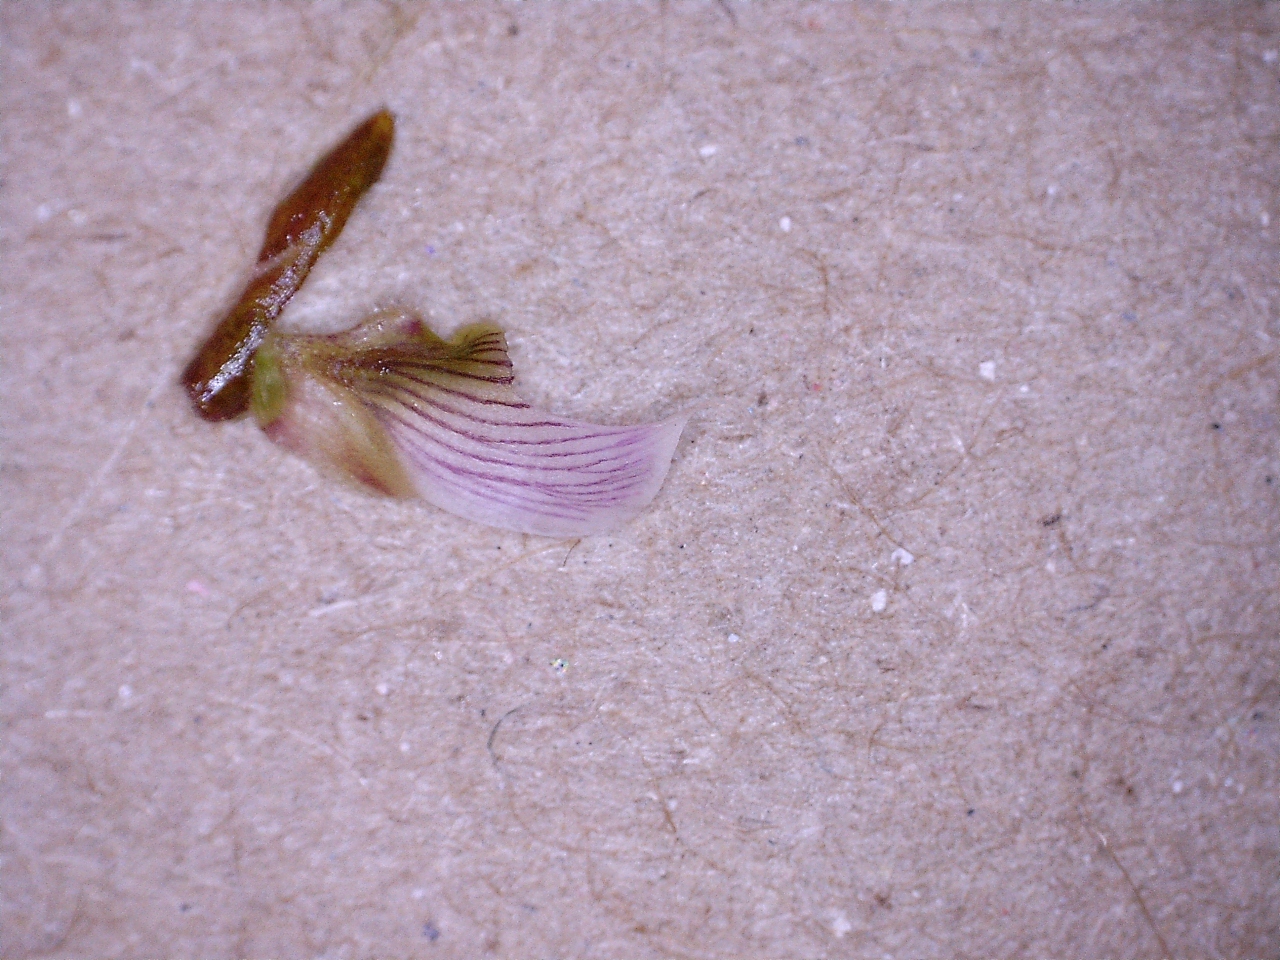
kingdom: Plantae
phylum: Tracheophyta
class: Magnoliopsida
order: Fabales
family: Polygalaceae
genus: Polygala
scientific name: Polygala bracteolata
